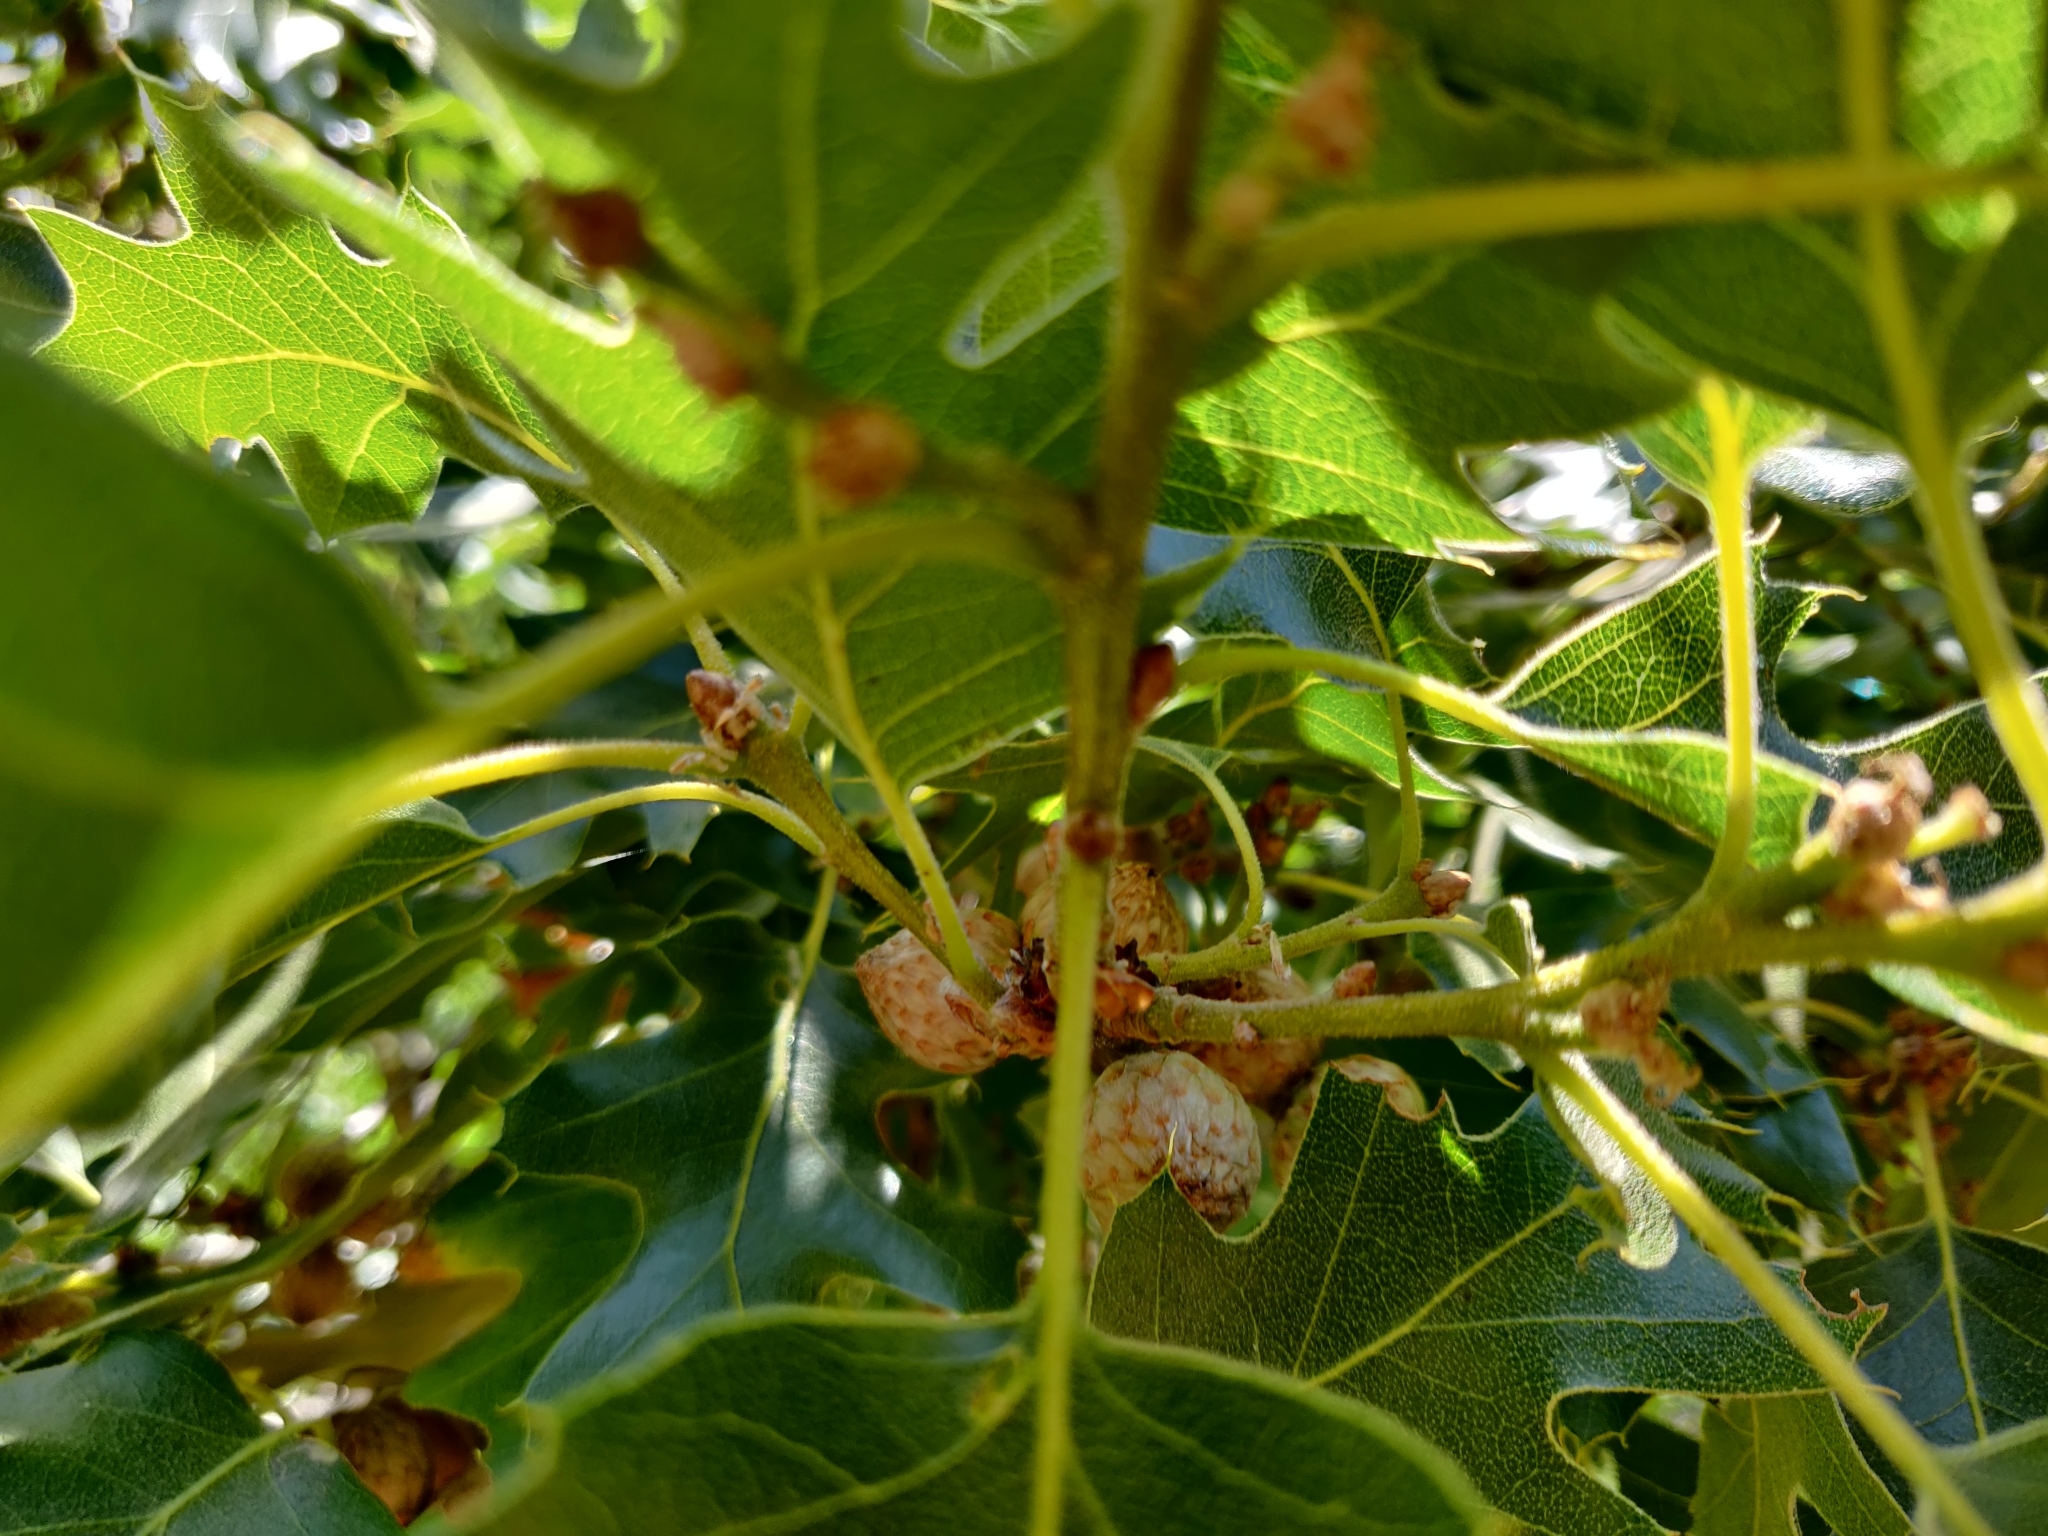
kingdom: Plantae
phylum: Tracheophyta
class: Magnoliopsida
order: Fagales
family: Fagaceae
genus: Quercus
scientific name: Quercus kelloggii
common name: California black oak
